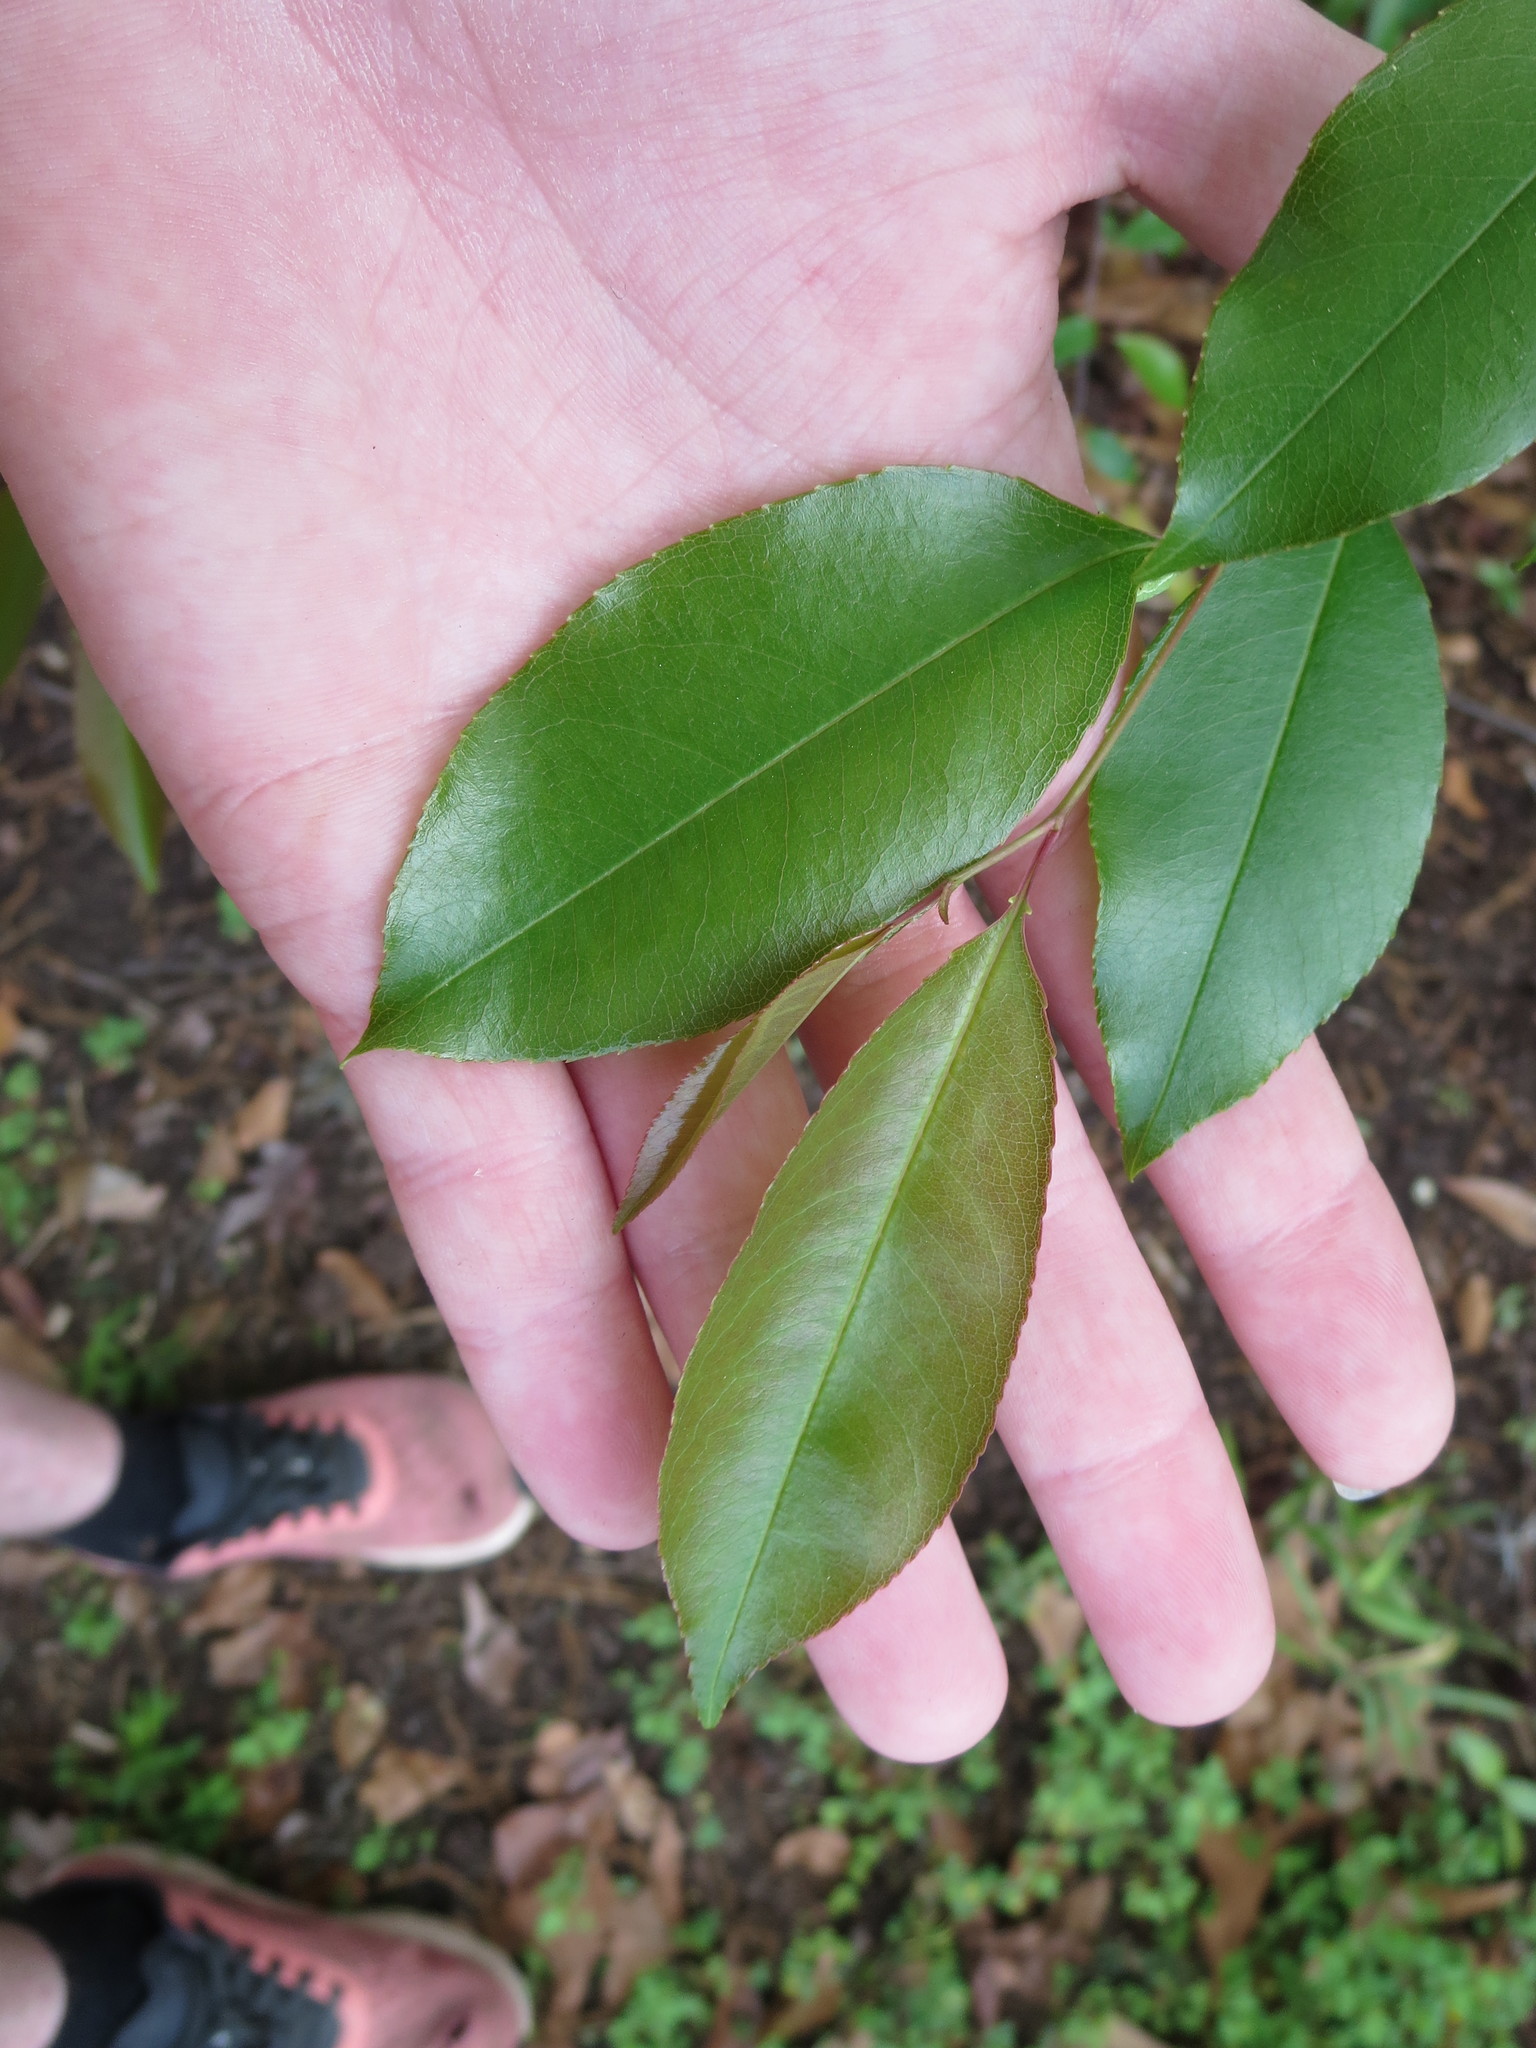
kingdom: Plantae
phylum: Tracheophyta
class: Magnoliopsida
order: Rosales
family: Rosaceae
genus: Prunus
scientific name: Prunus serotina
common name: Black cherry
